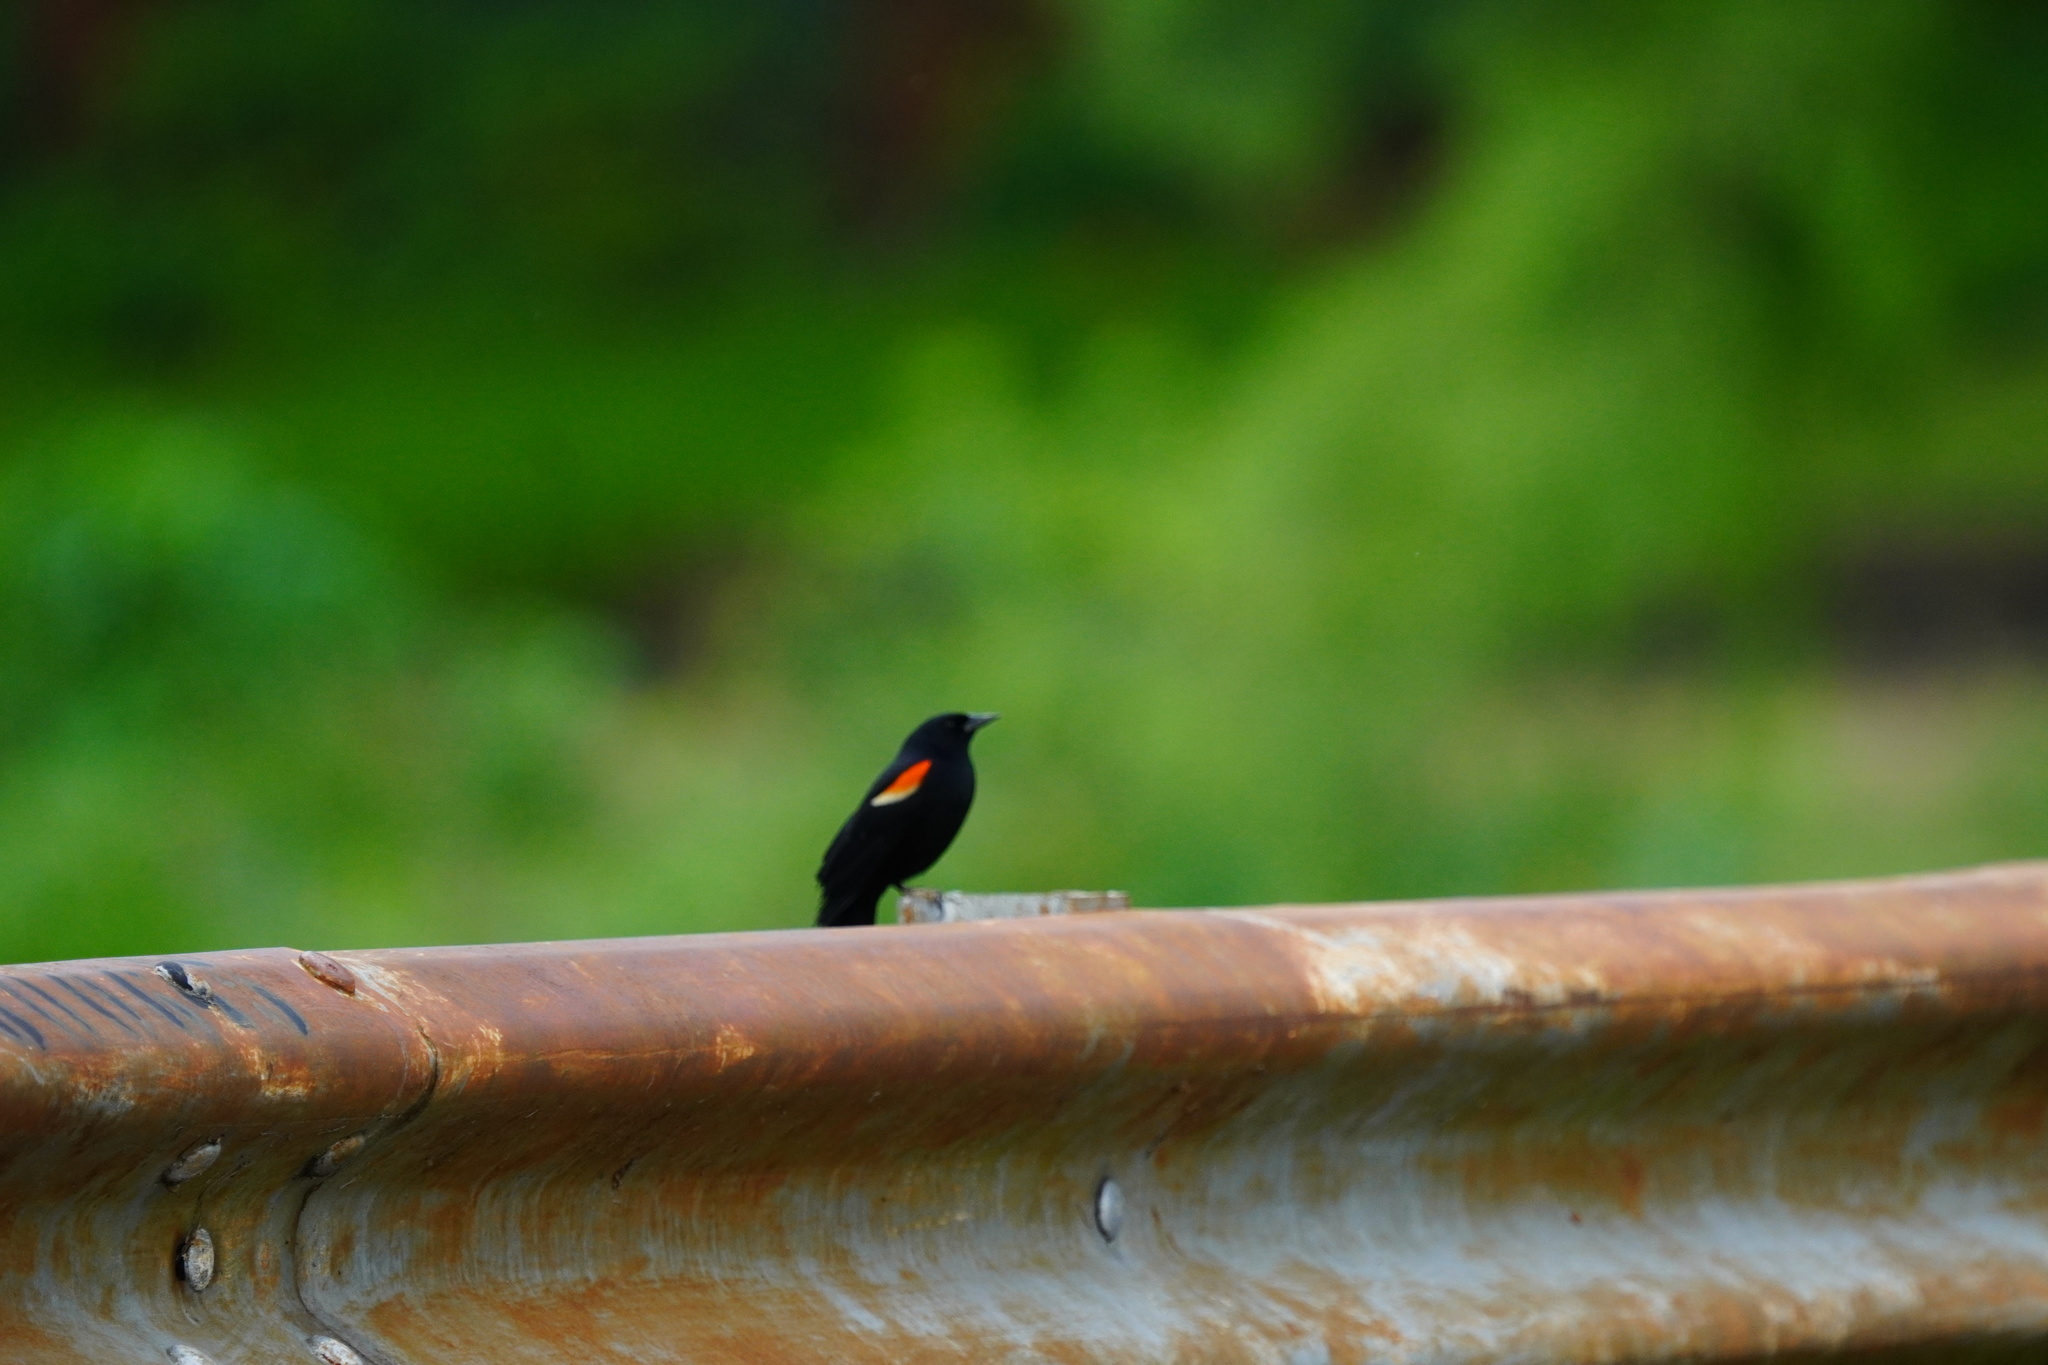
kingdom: Animalia
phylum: Chordata
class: Aves
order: Passeriformes
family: Icteridae
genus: Agelaius
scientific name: Agelaius phoeniceus
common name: Red-winged blackbird
